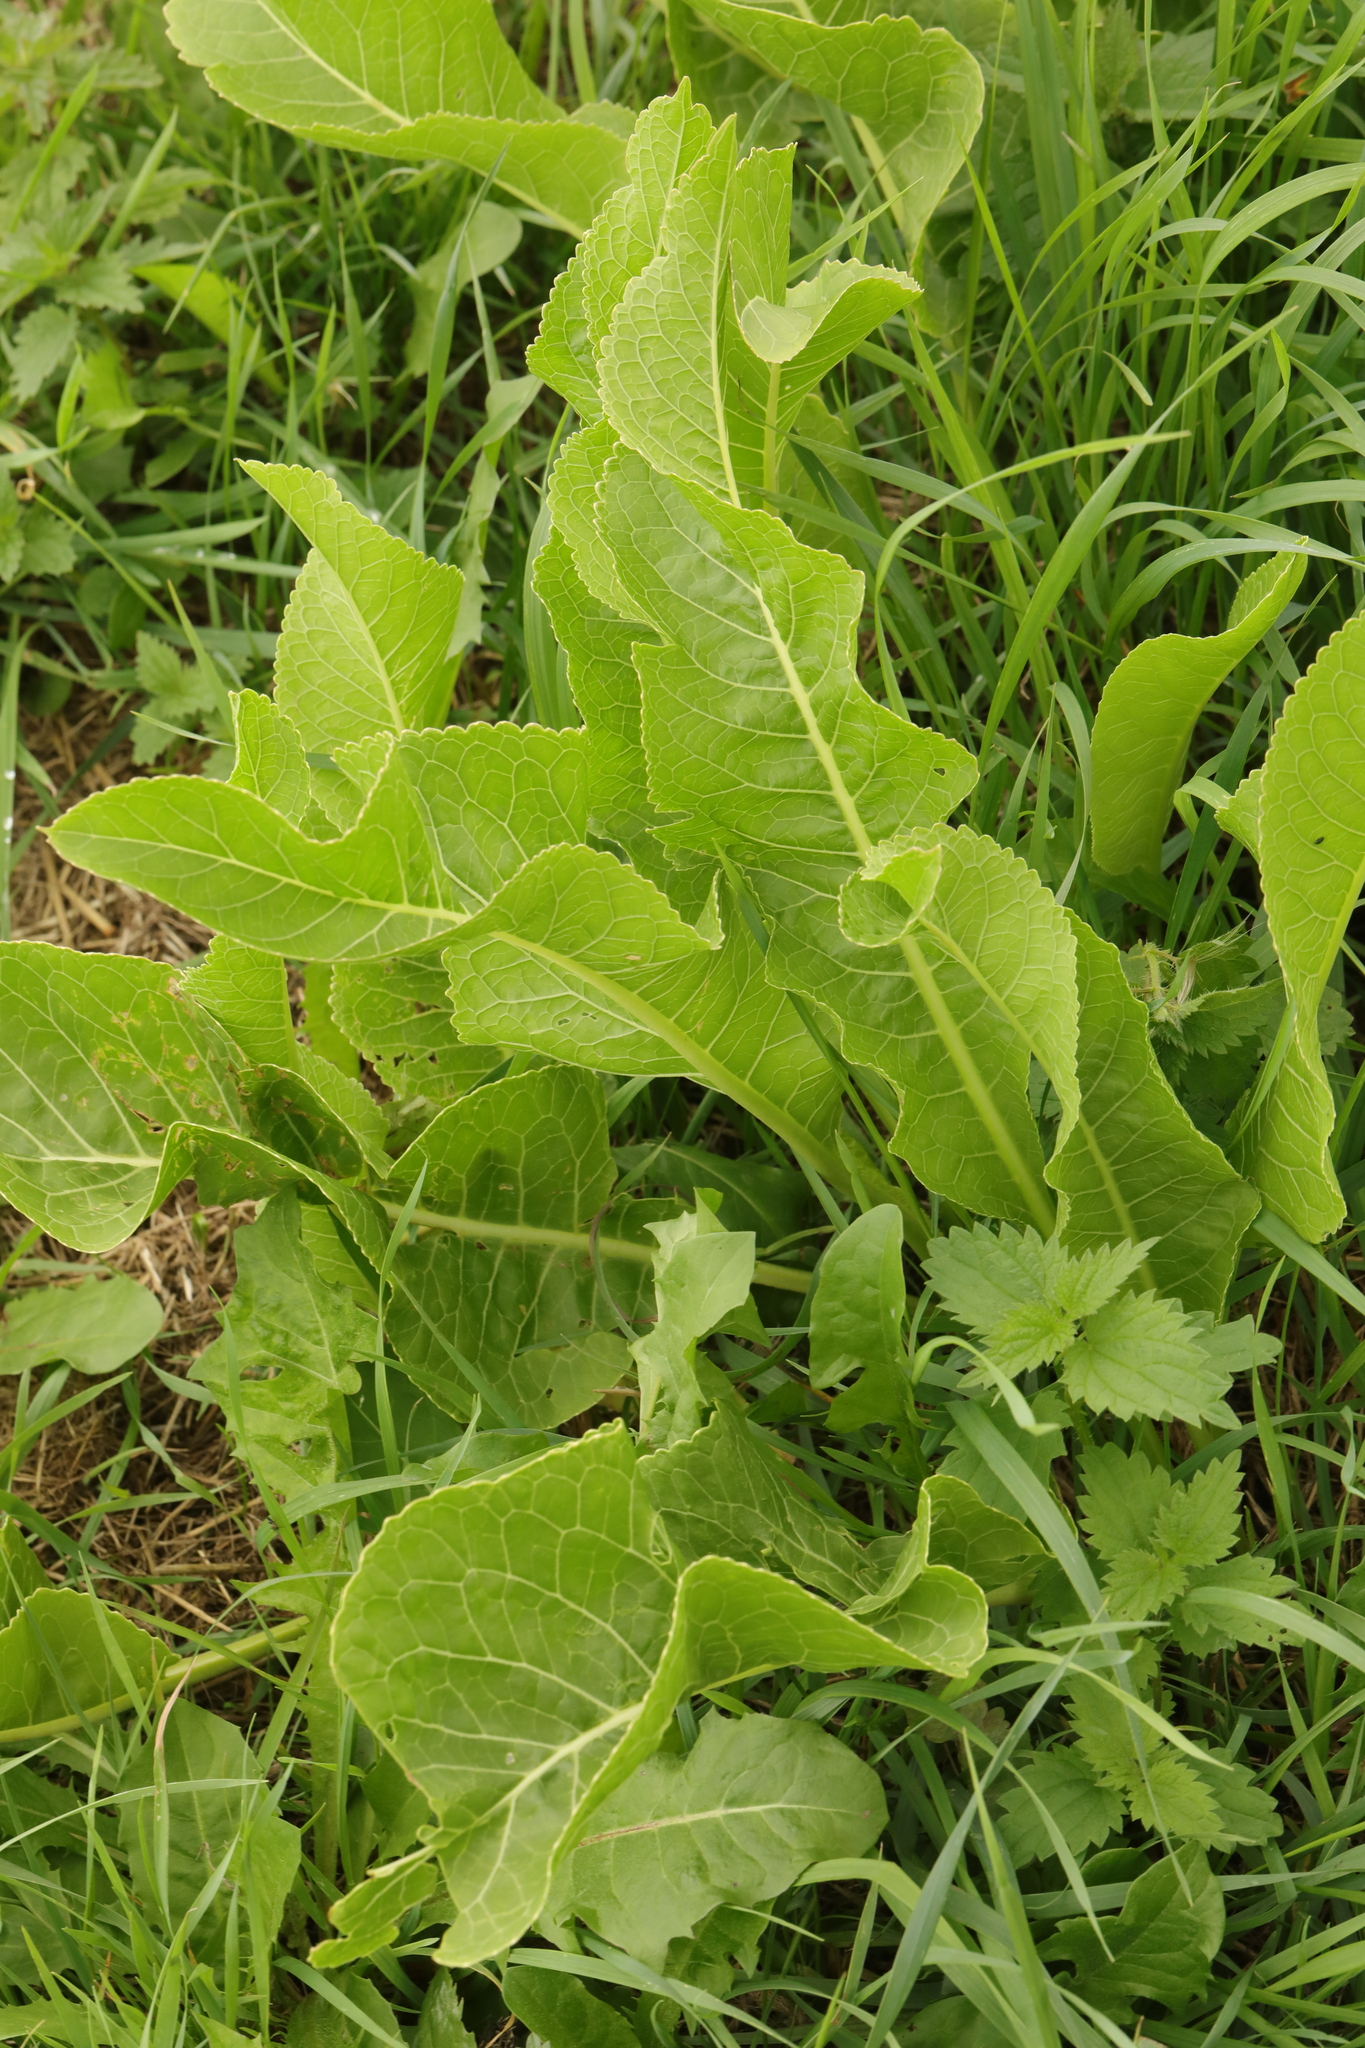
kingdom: Plantae
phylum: Tracheophyta
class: Magnoliopsida
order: Brassicales
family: Brassicaceae
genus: Armoracia
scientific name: Armoracia rusticana
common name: Horseradish
